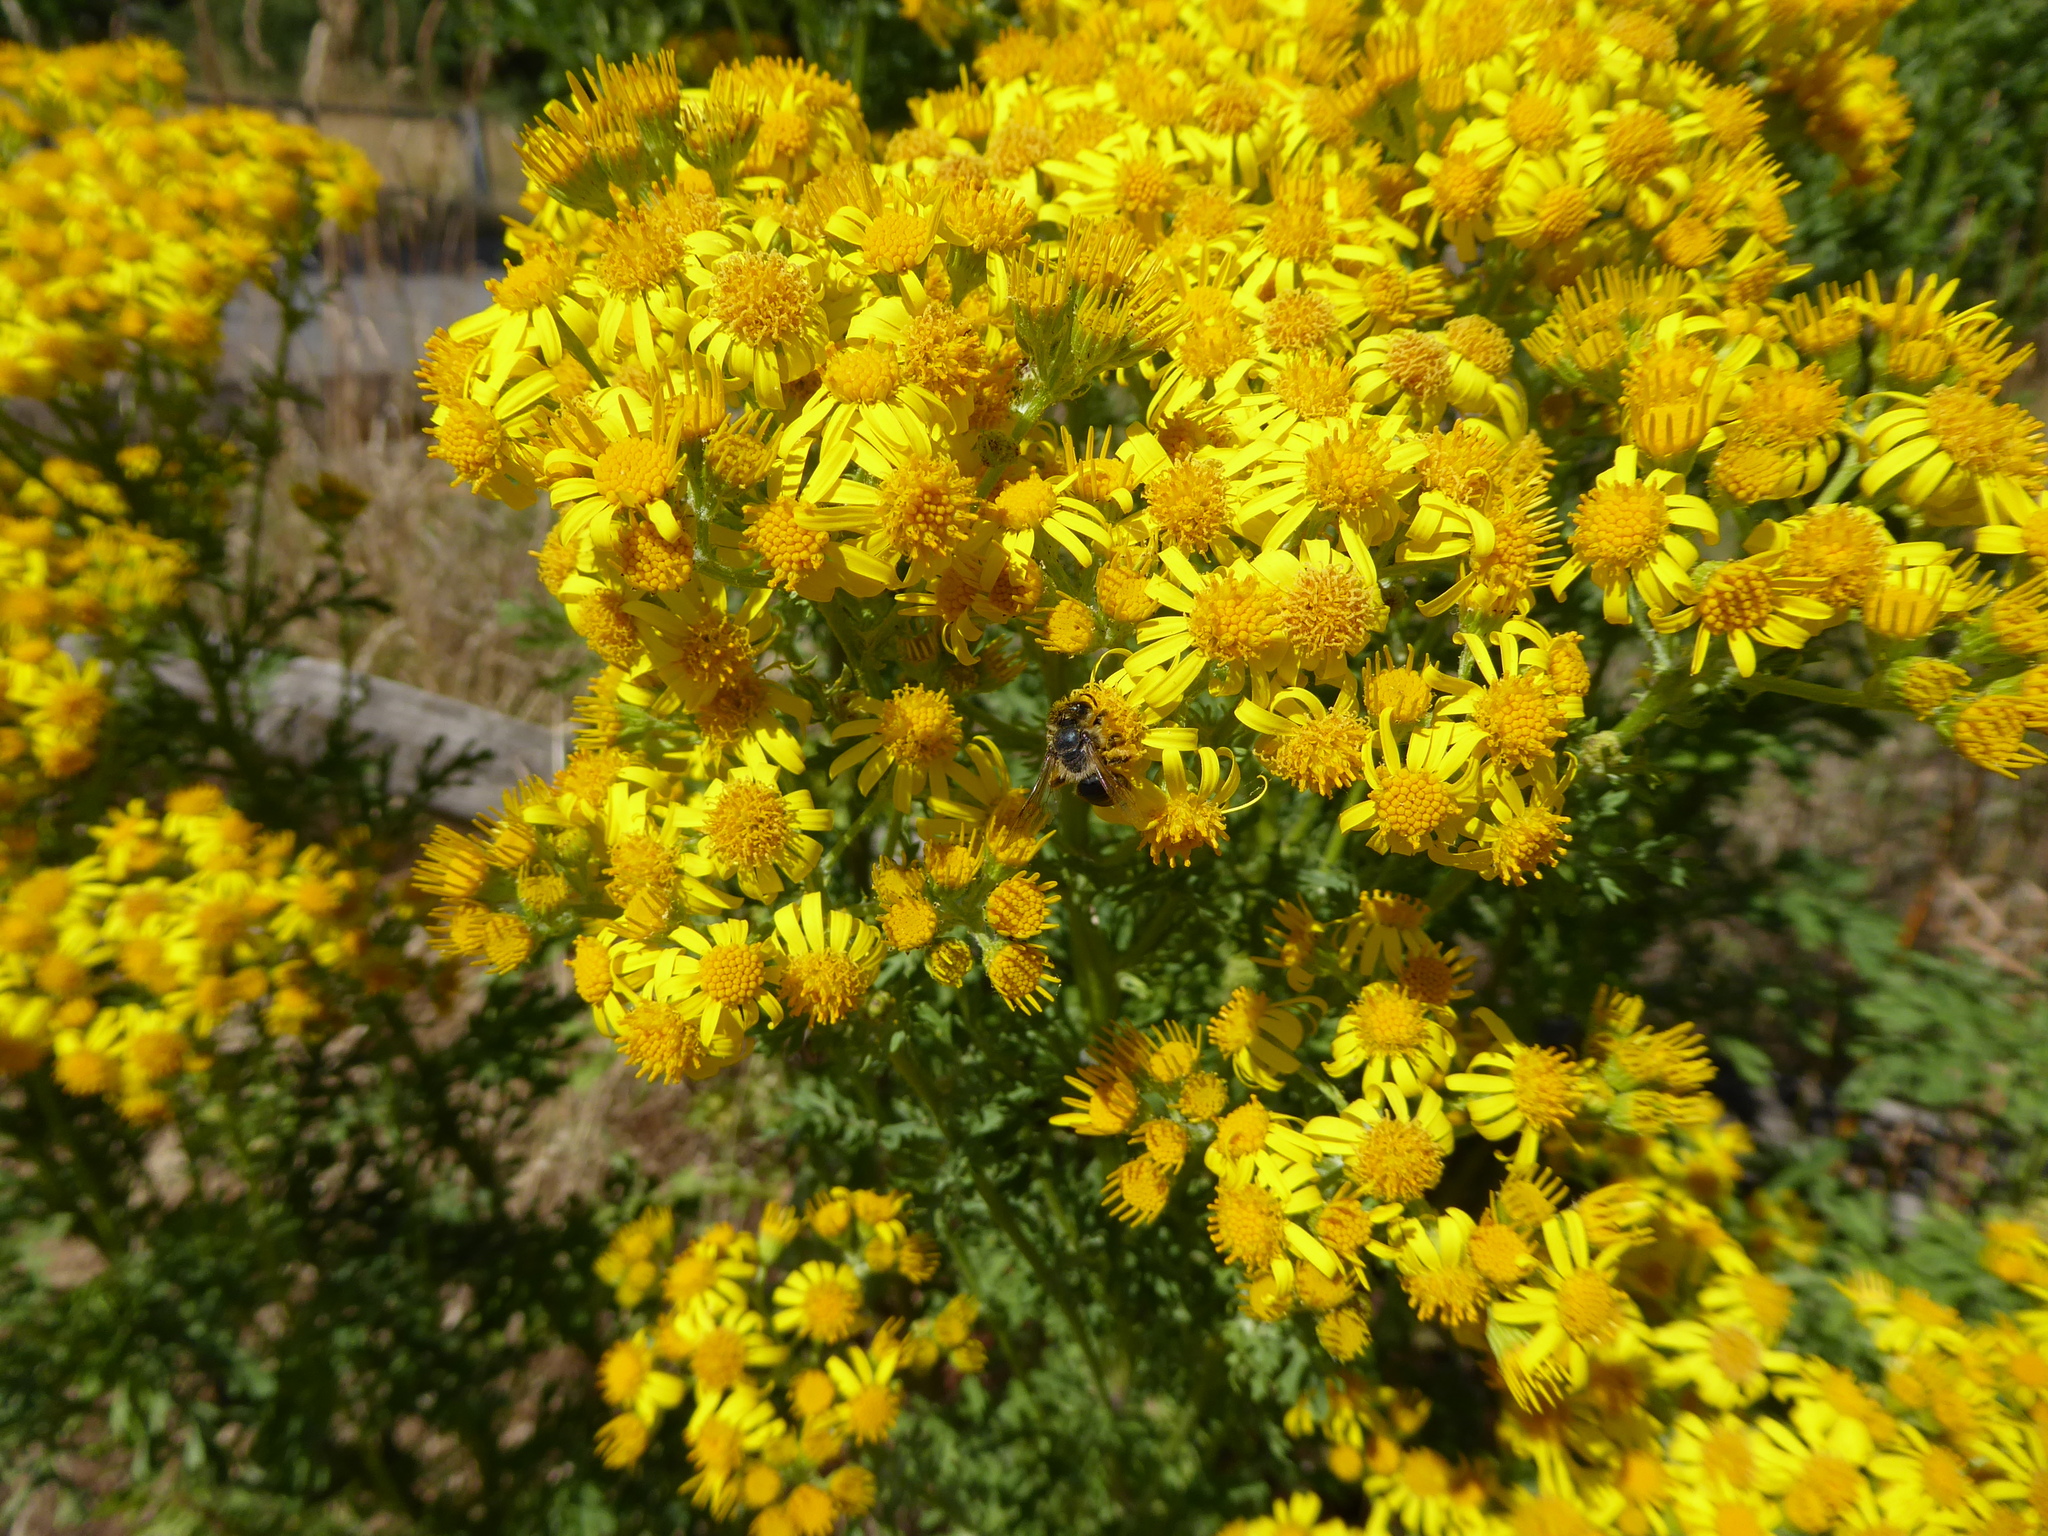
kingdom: Plantae
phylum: Tracheophyta
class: Magnoliopsida
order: Asterales
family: Asteraceae
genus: Jacobaea
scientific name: Jacobaea vulgaris
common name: Stinking willie
